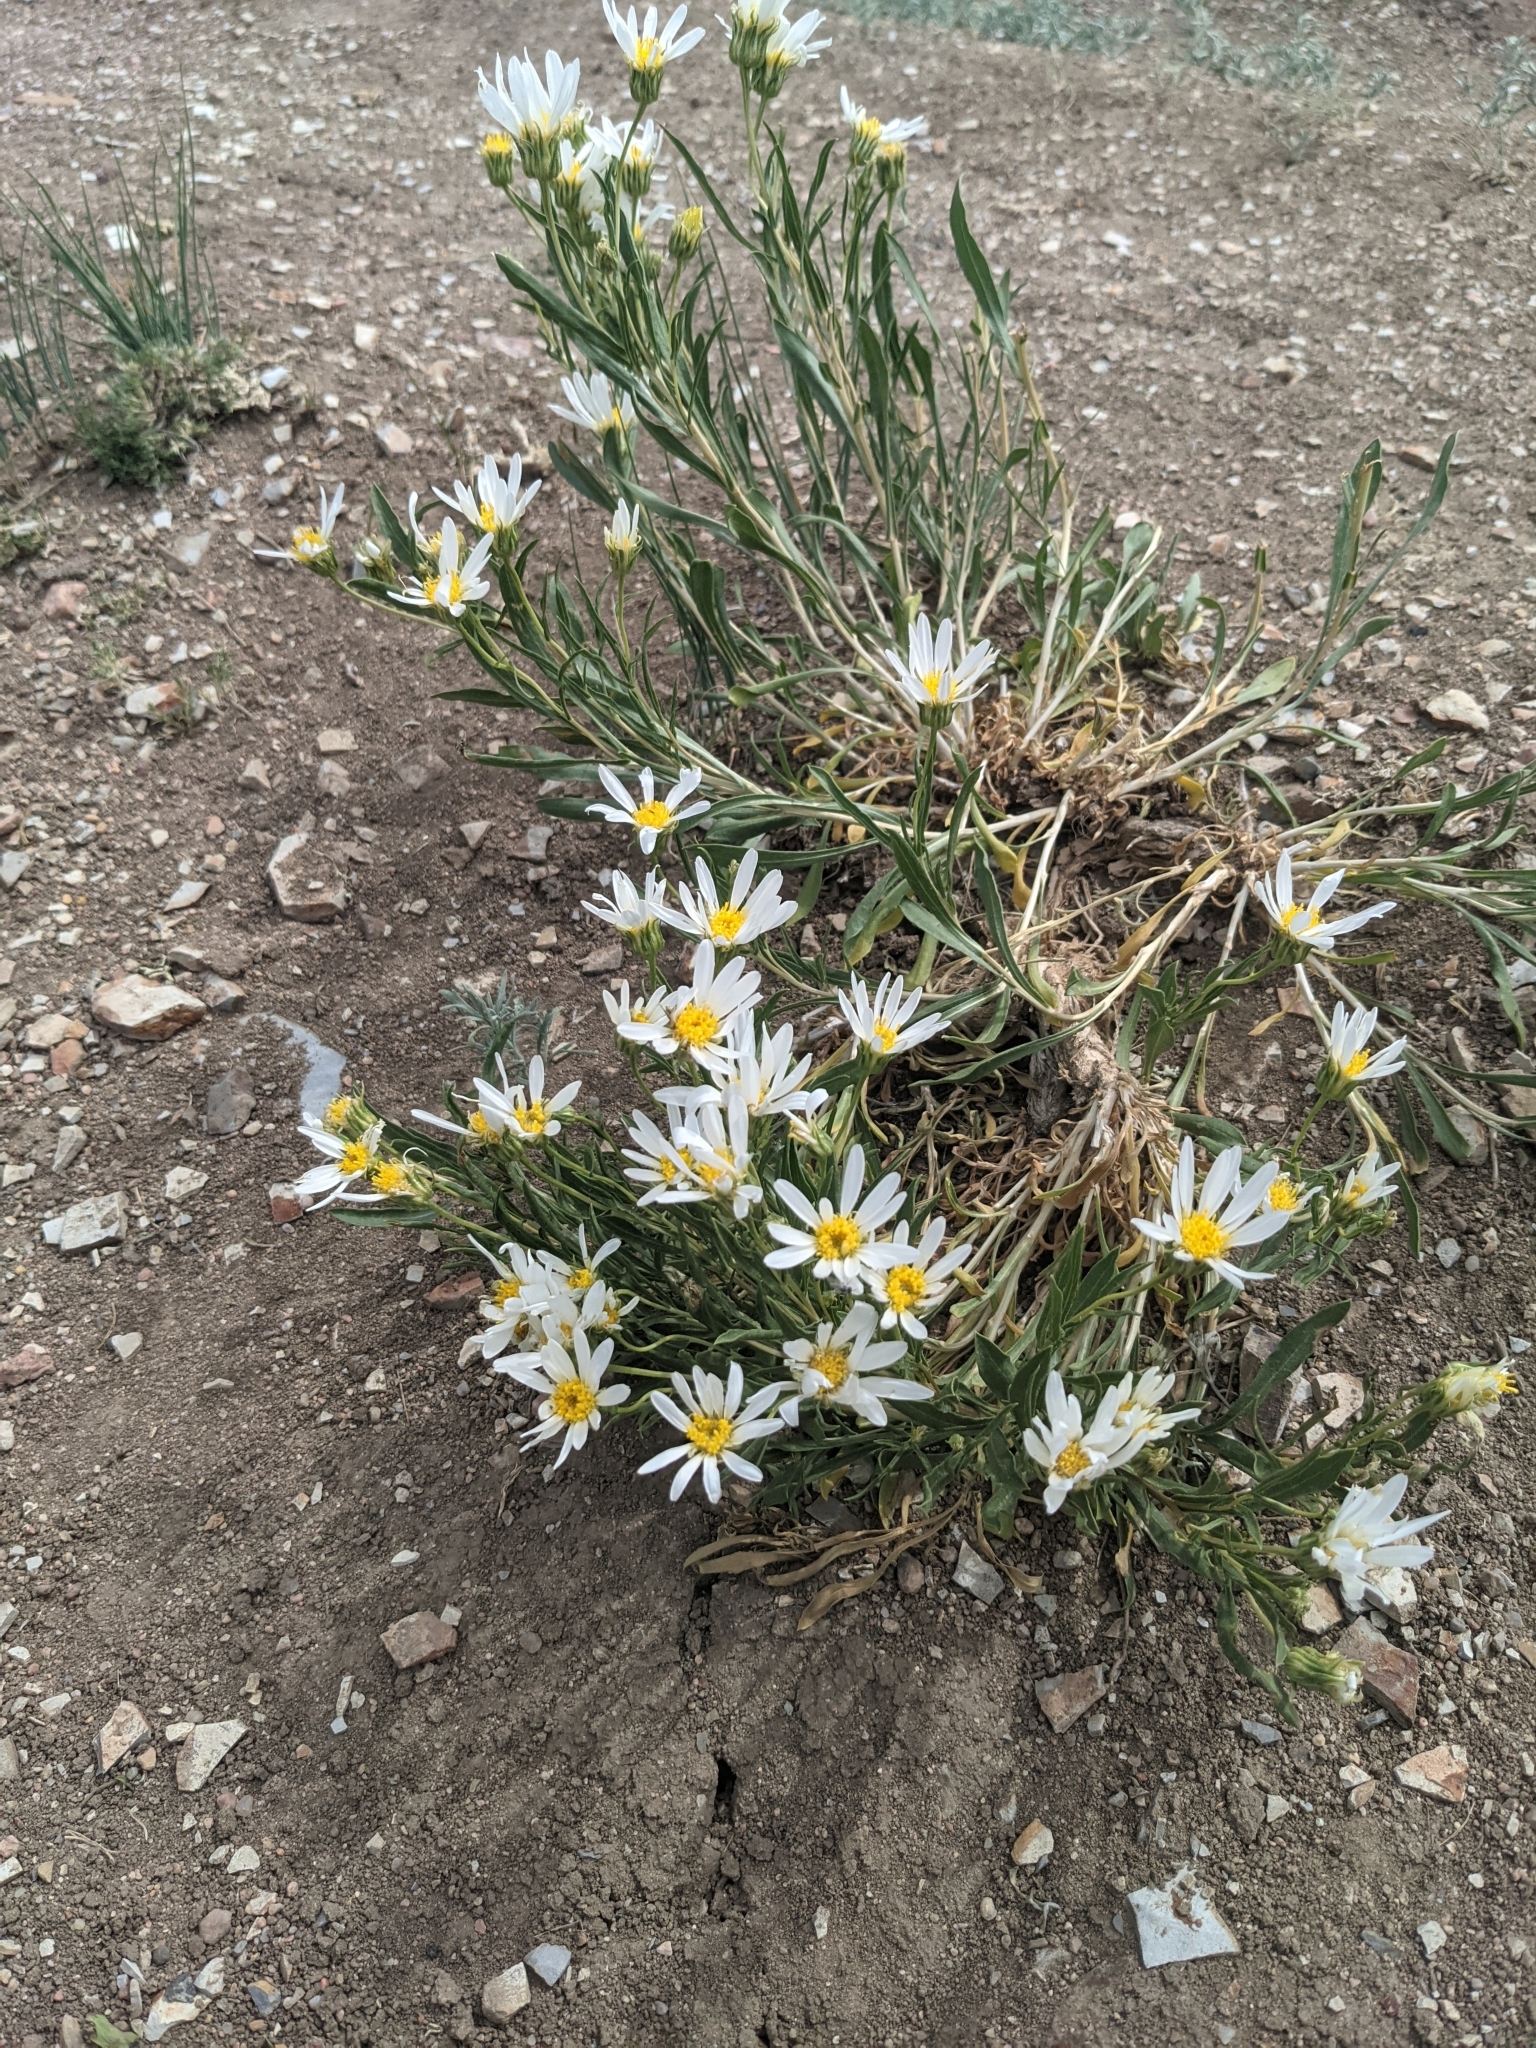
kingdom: Plantae
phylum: Tracheophyta
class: Magnoliopsida
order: Asterales
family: Asteraceae
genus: Xylorhiza
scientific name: Xylorhiza glabriuscula
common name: Smooth woody-aster
